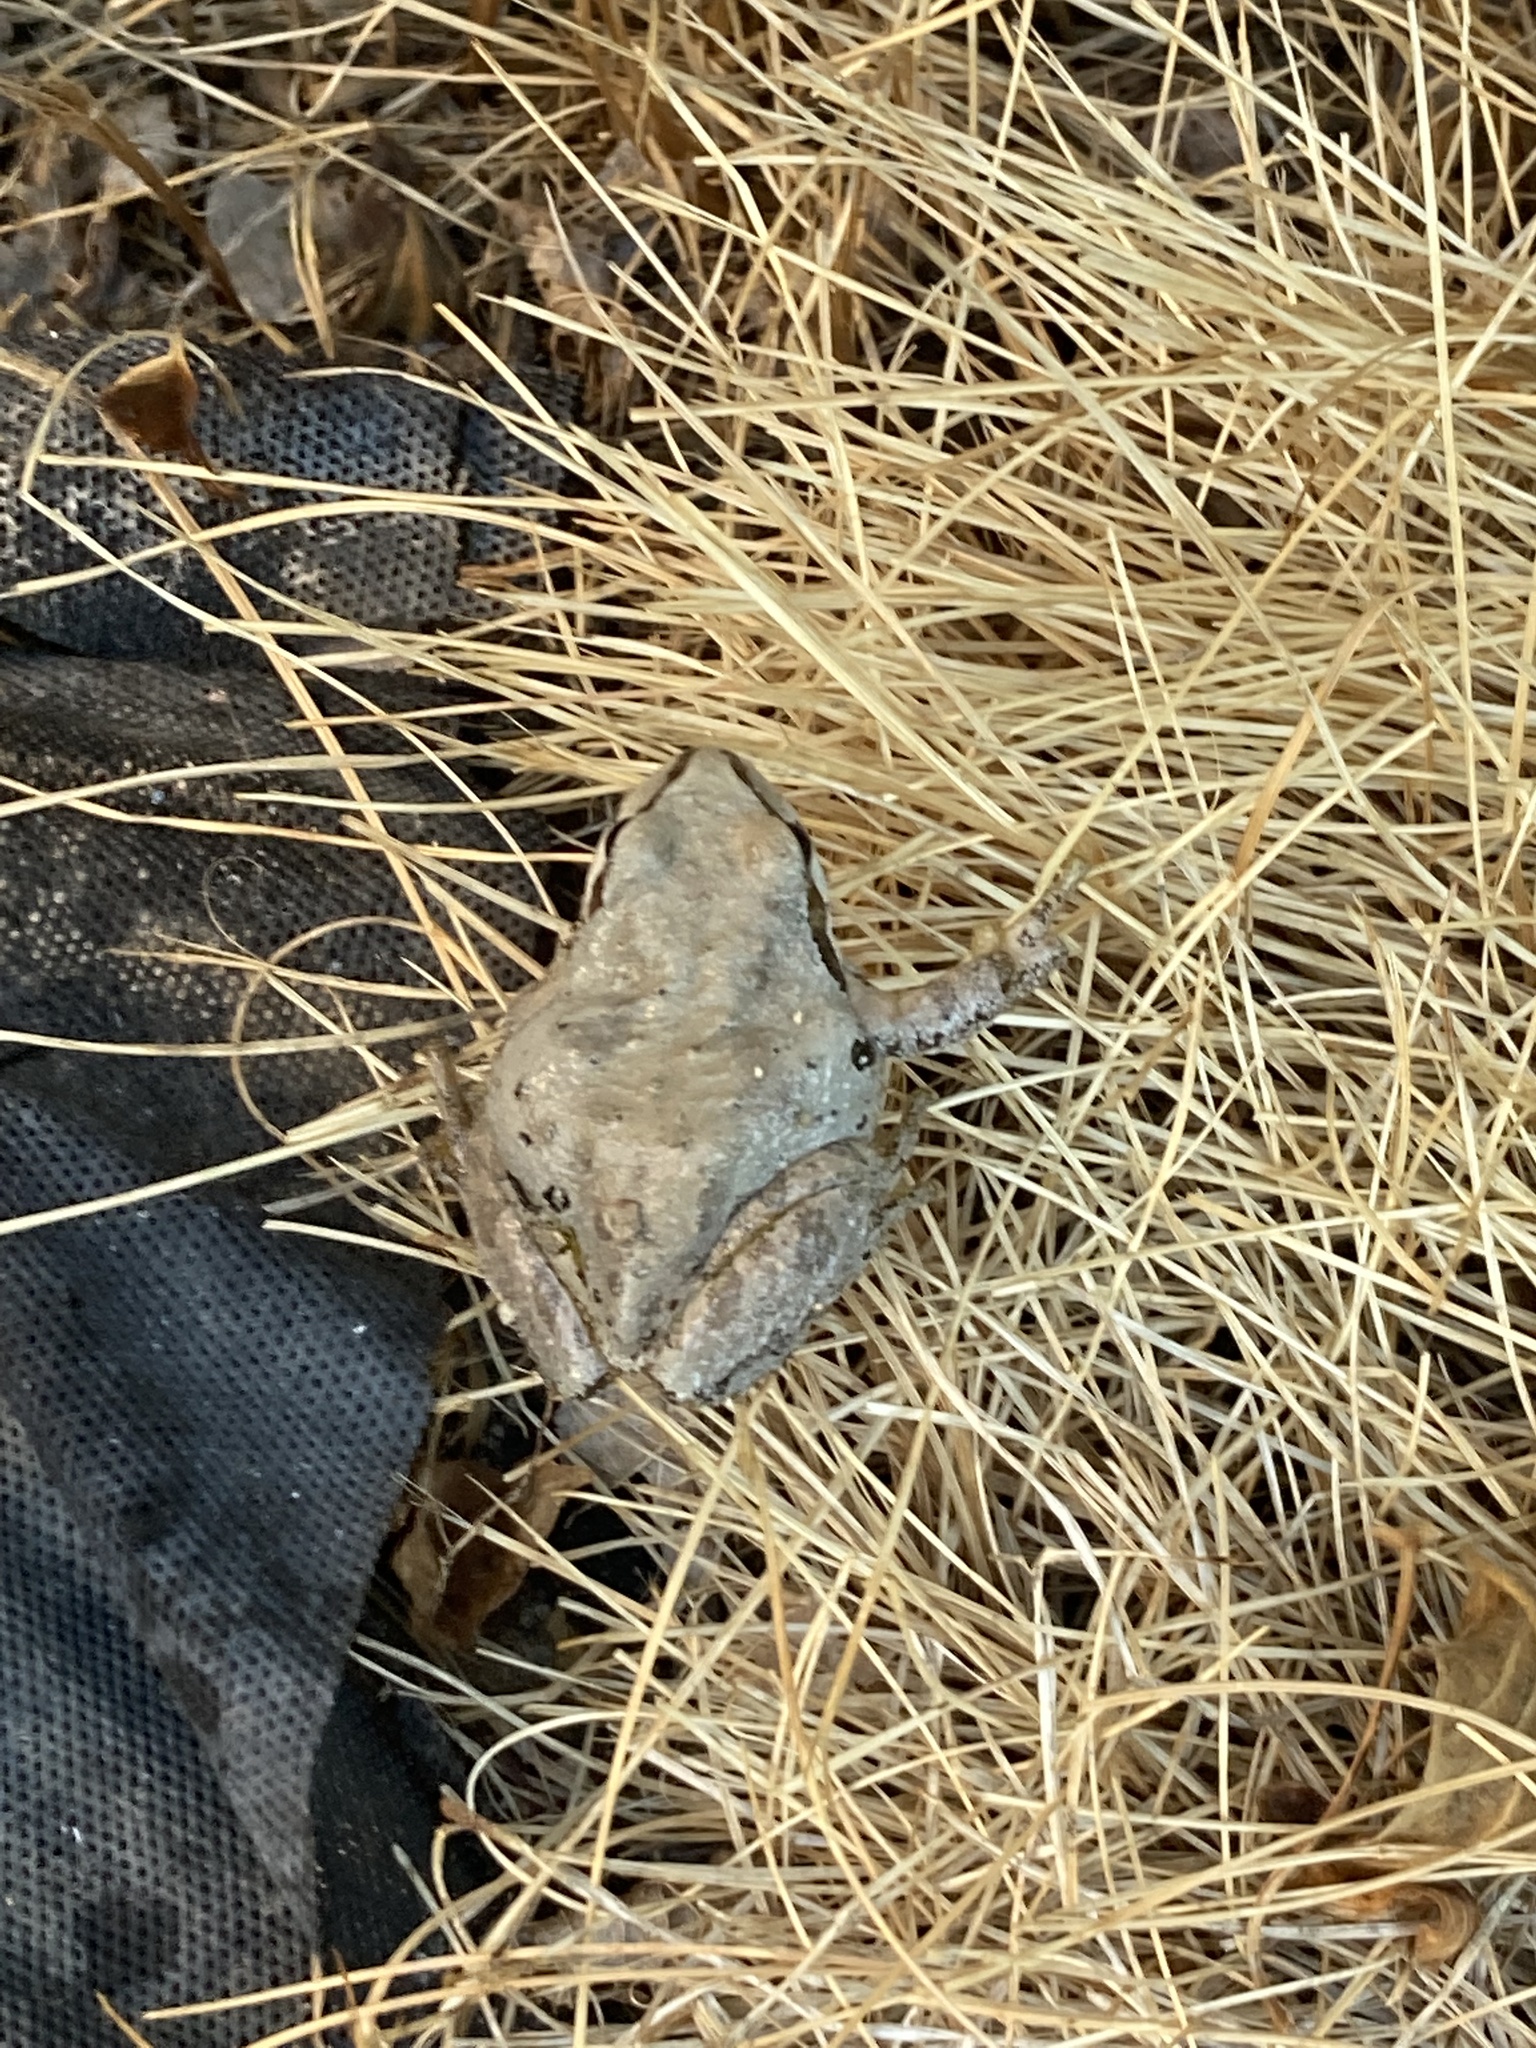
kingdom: Animalia
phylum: Chordata
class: Amphibia
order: Anura
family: Hylidae
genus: Pseudacris
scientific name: Pseudacris regilla
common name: Pacific chorus frog
